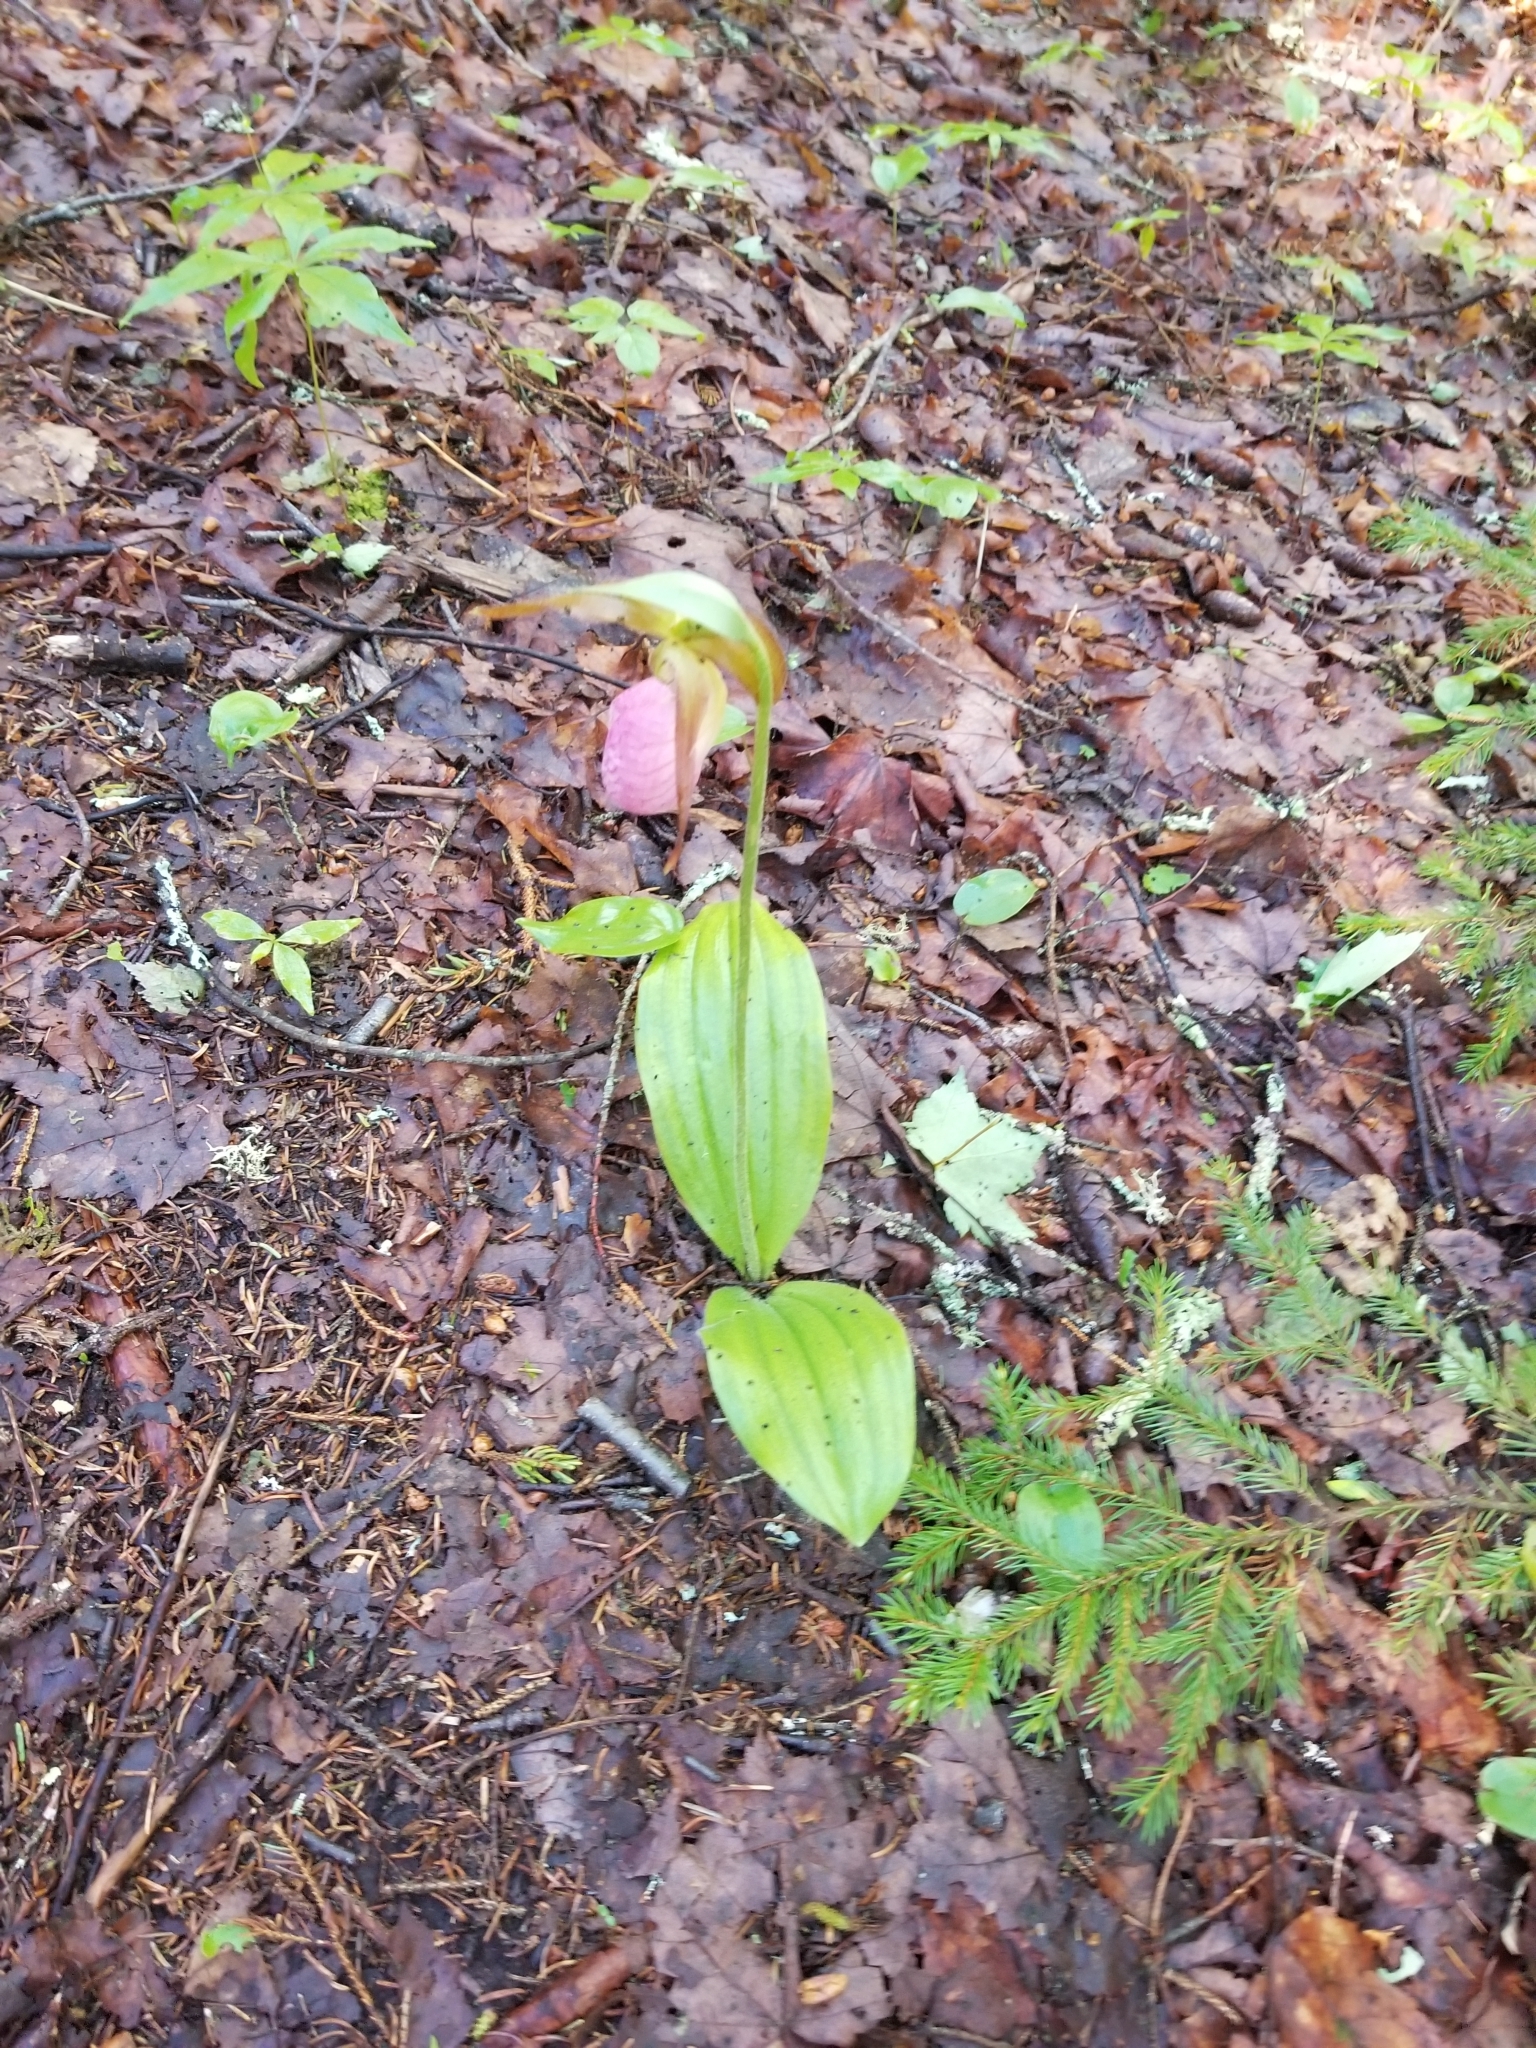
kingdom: Plantae
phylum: Tracheophyta
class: Liliopsida
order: Asparagales
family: Orchidaceae
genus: Cypripedium
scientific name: Cypripedium acaule
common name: Pink lady's-slipper
